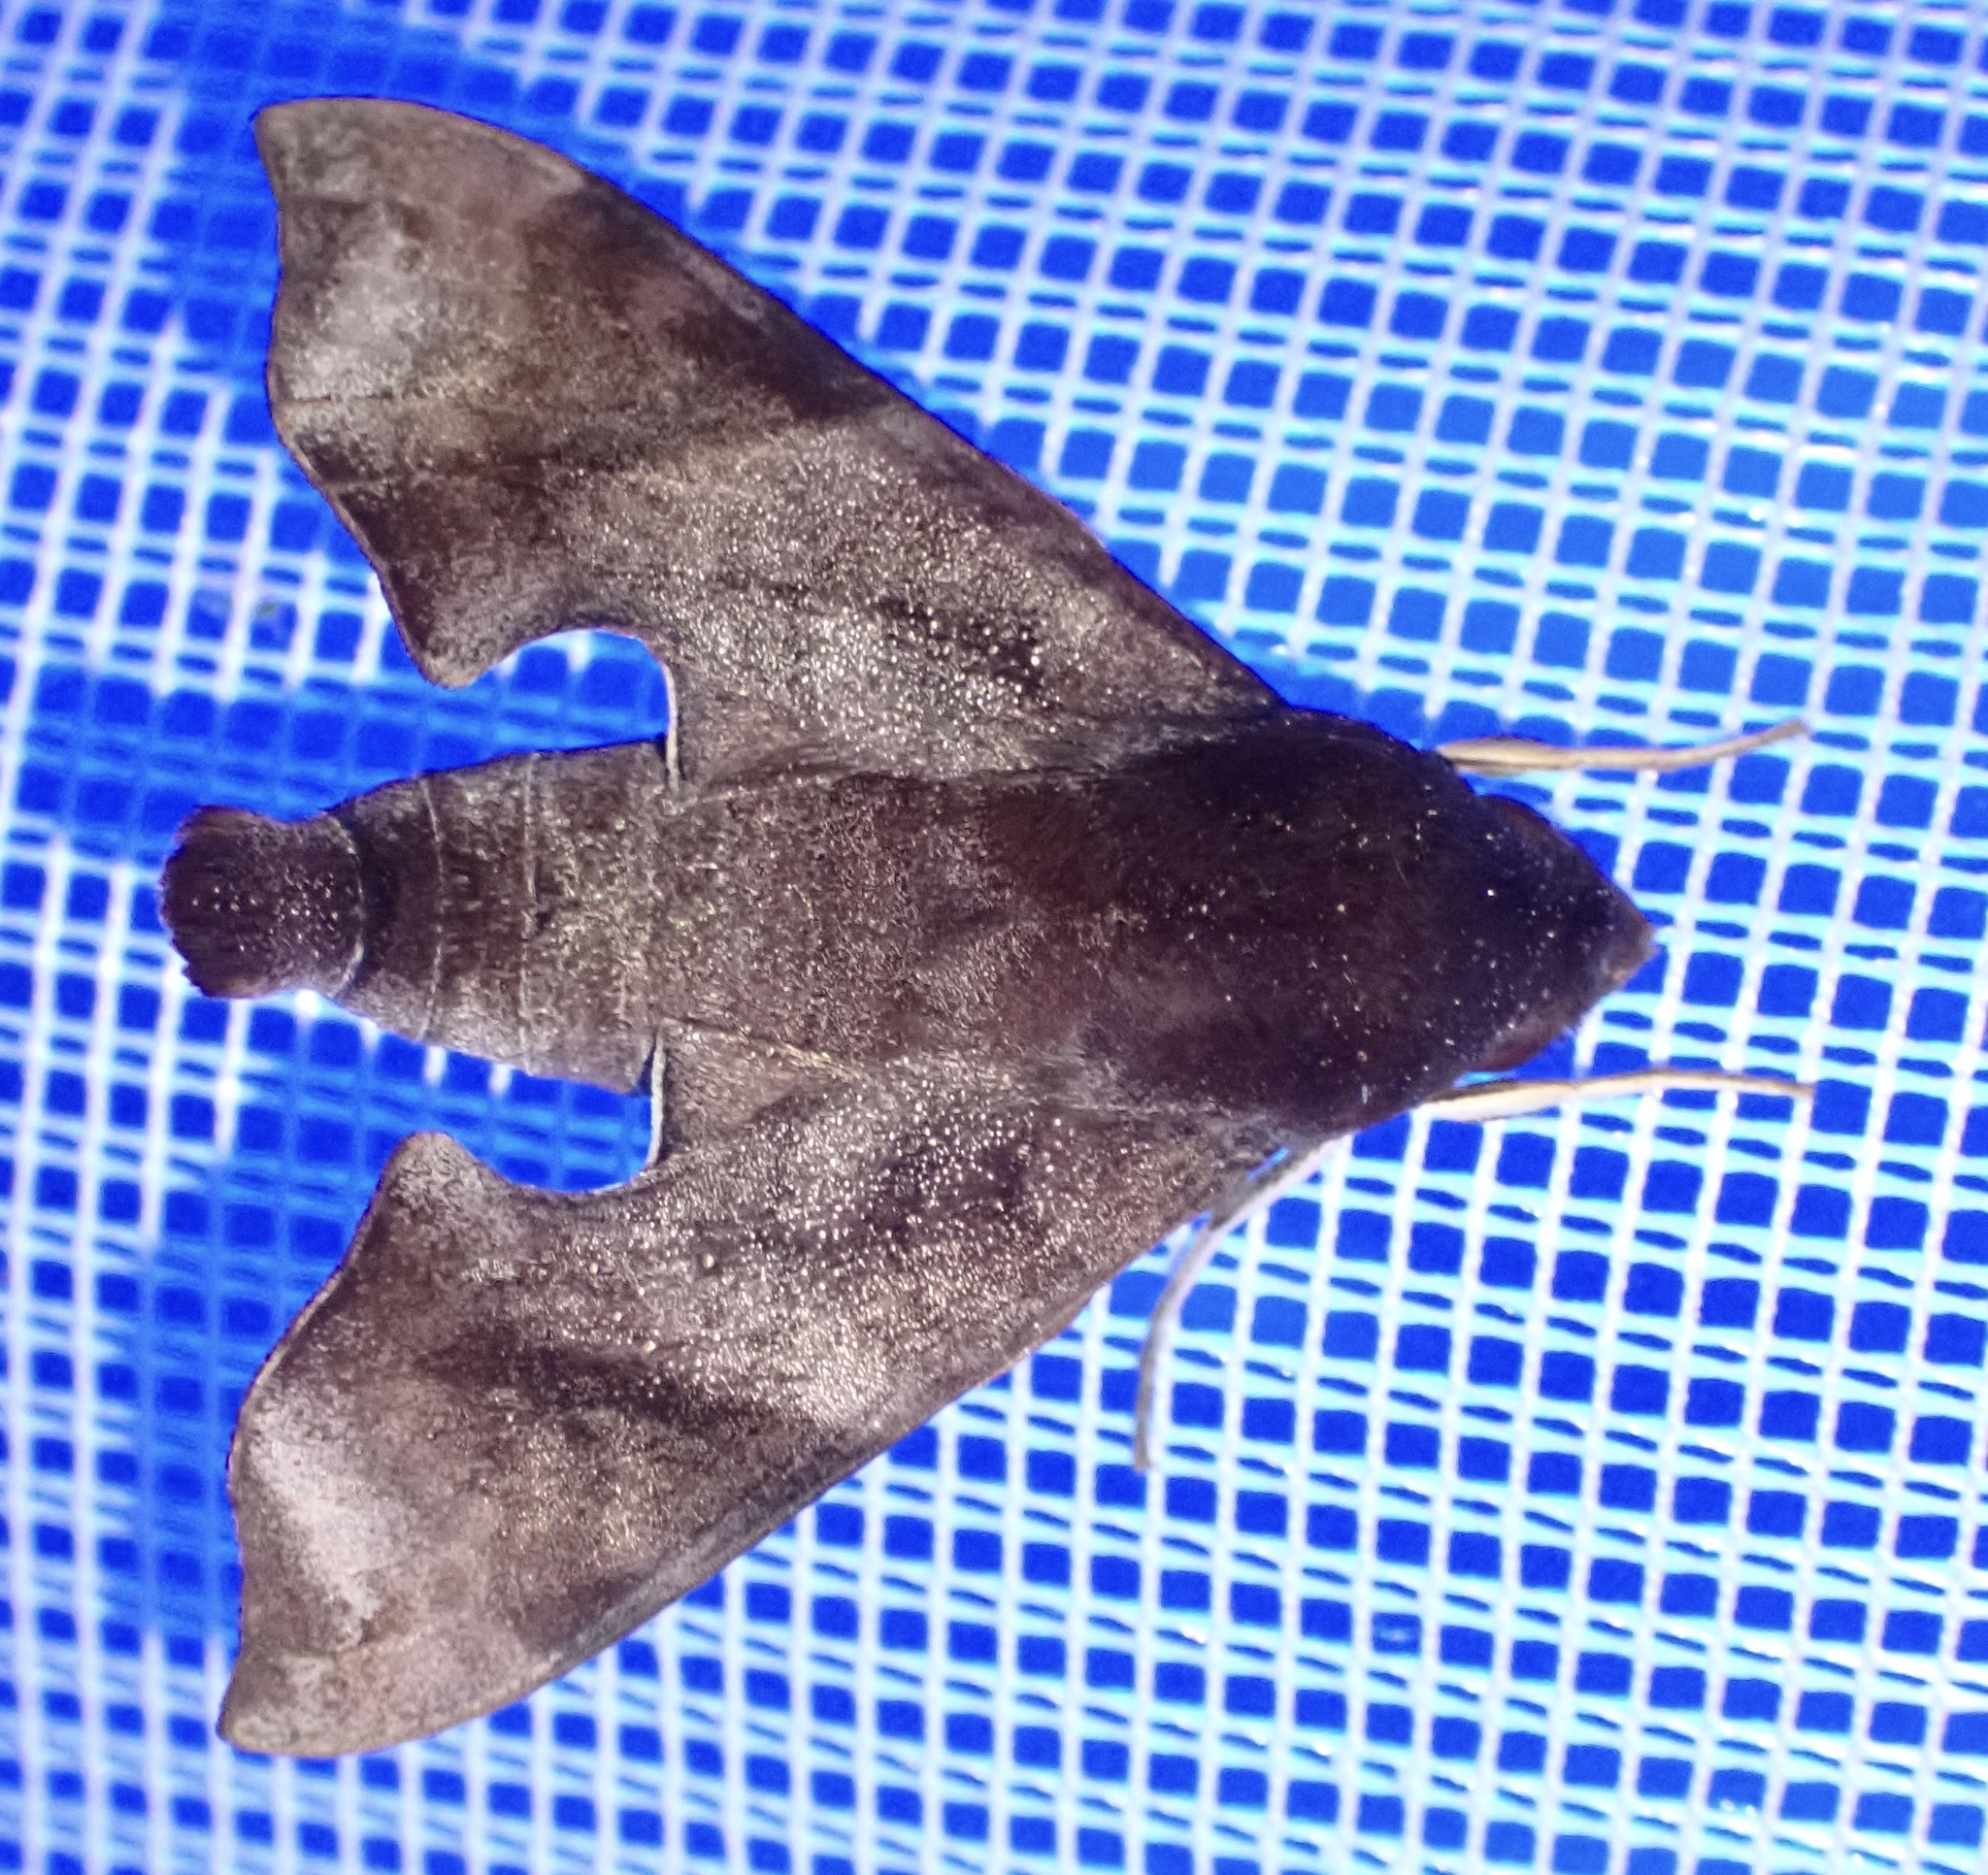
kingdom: Animalia
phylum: Arthropoda
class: Insecta
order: Lepidoptera
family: Sphingidae
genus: Temnora
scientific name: Temnora marginata
